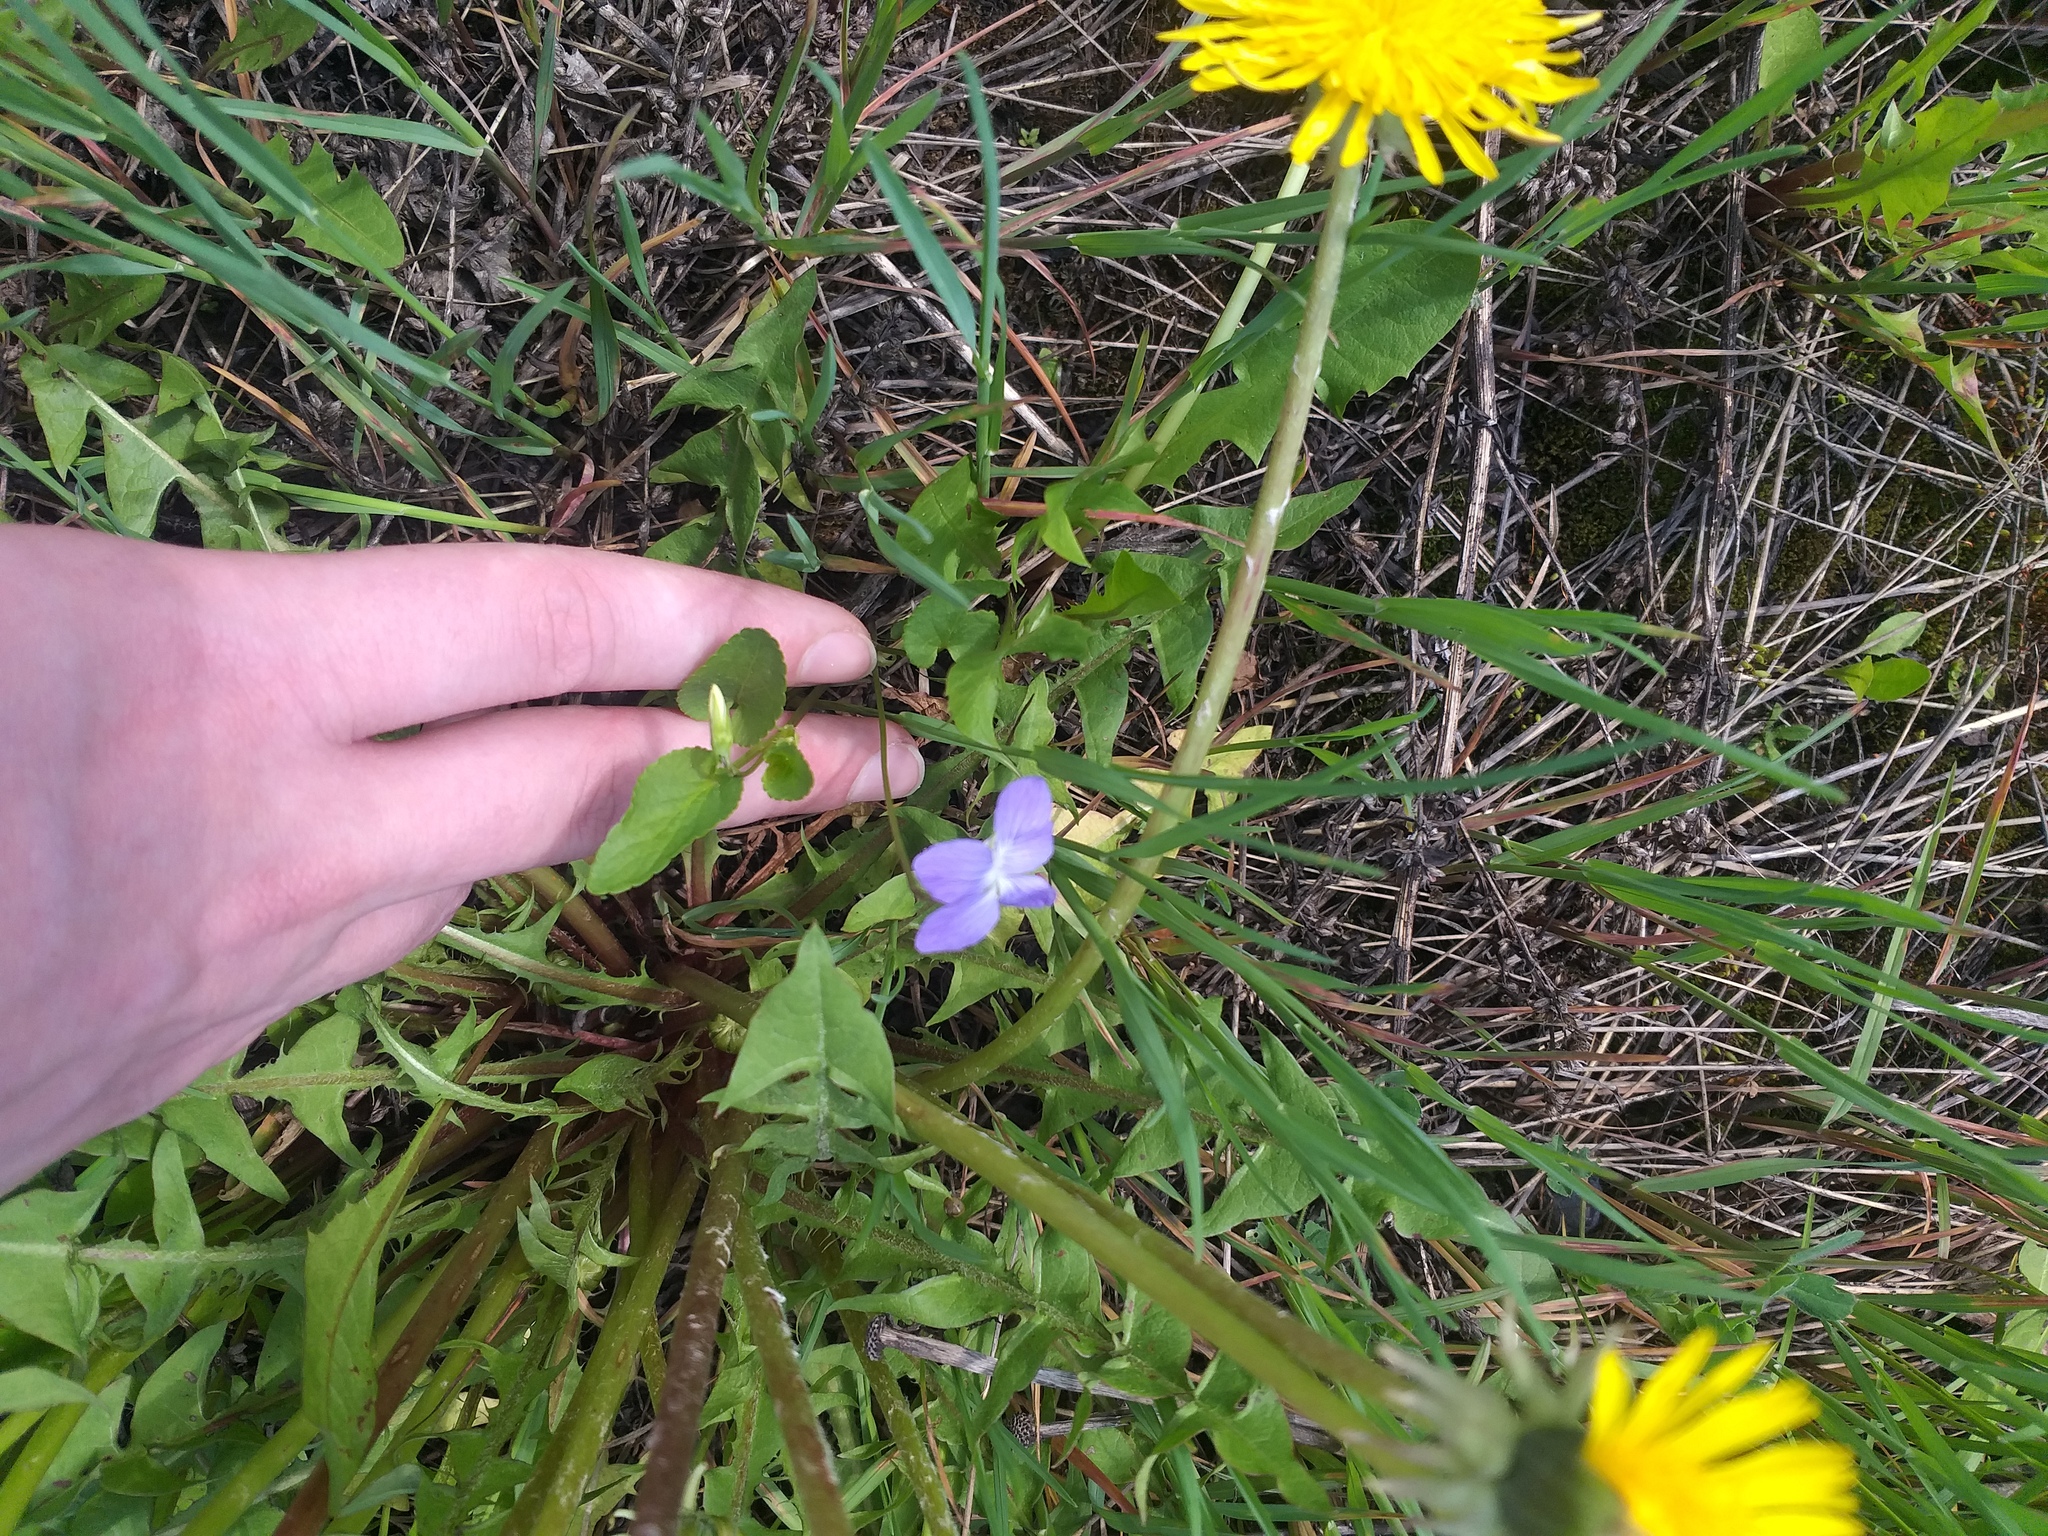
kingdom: Plantae
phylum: Tracheophyta
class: Magnoliopsida
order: Malpighiales
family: Violaceae
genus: Viola
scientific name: Viola canina
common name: Heath dog-violet
